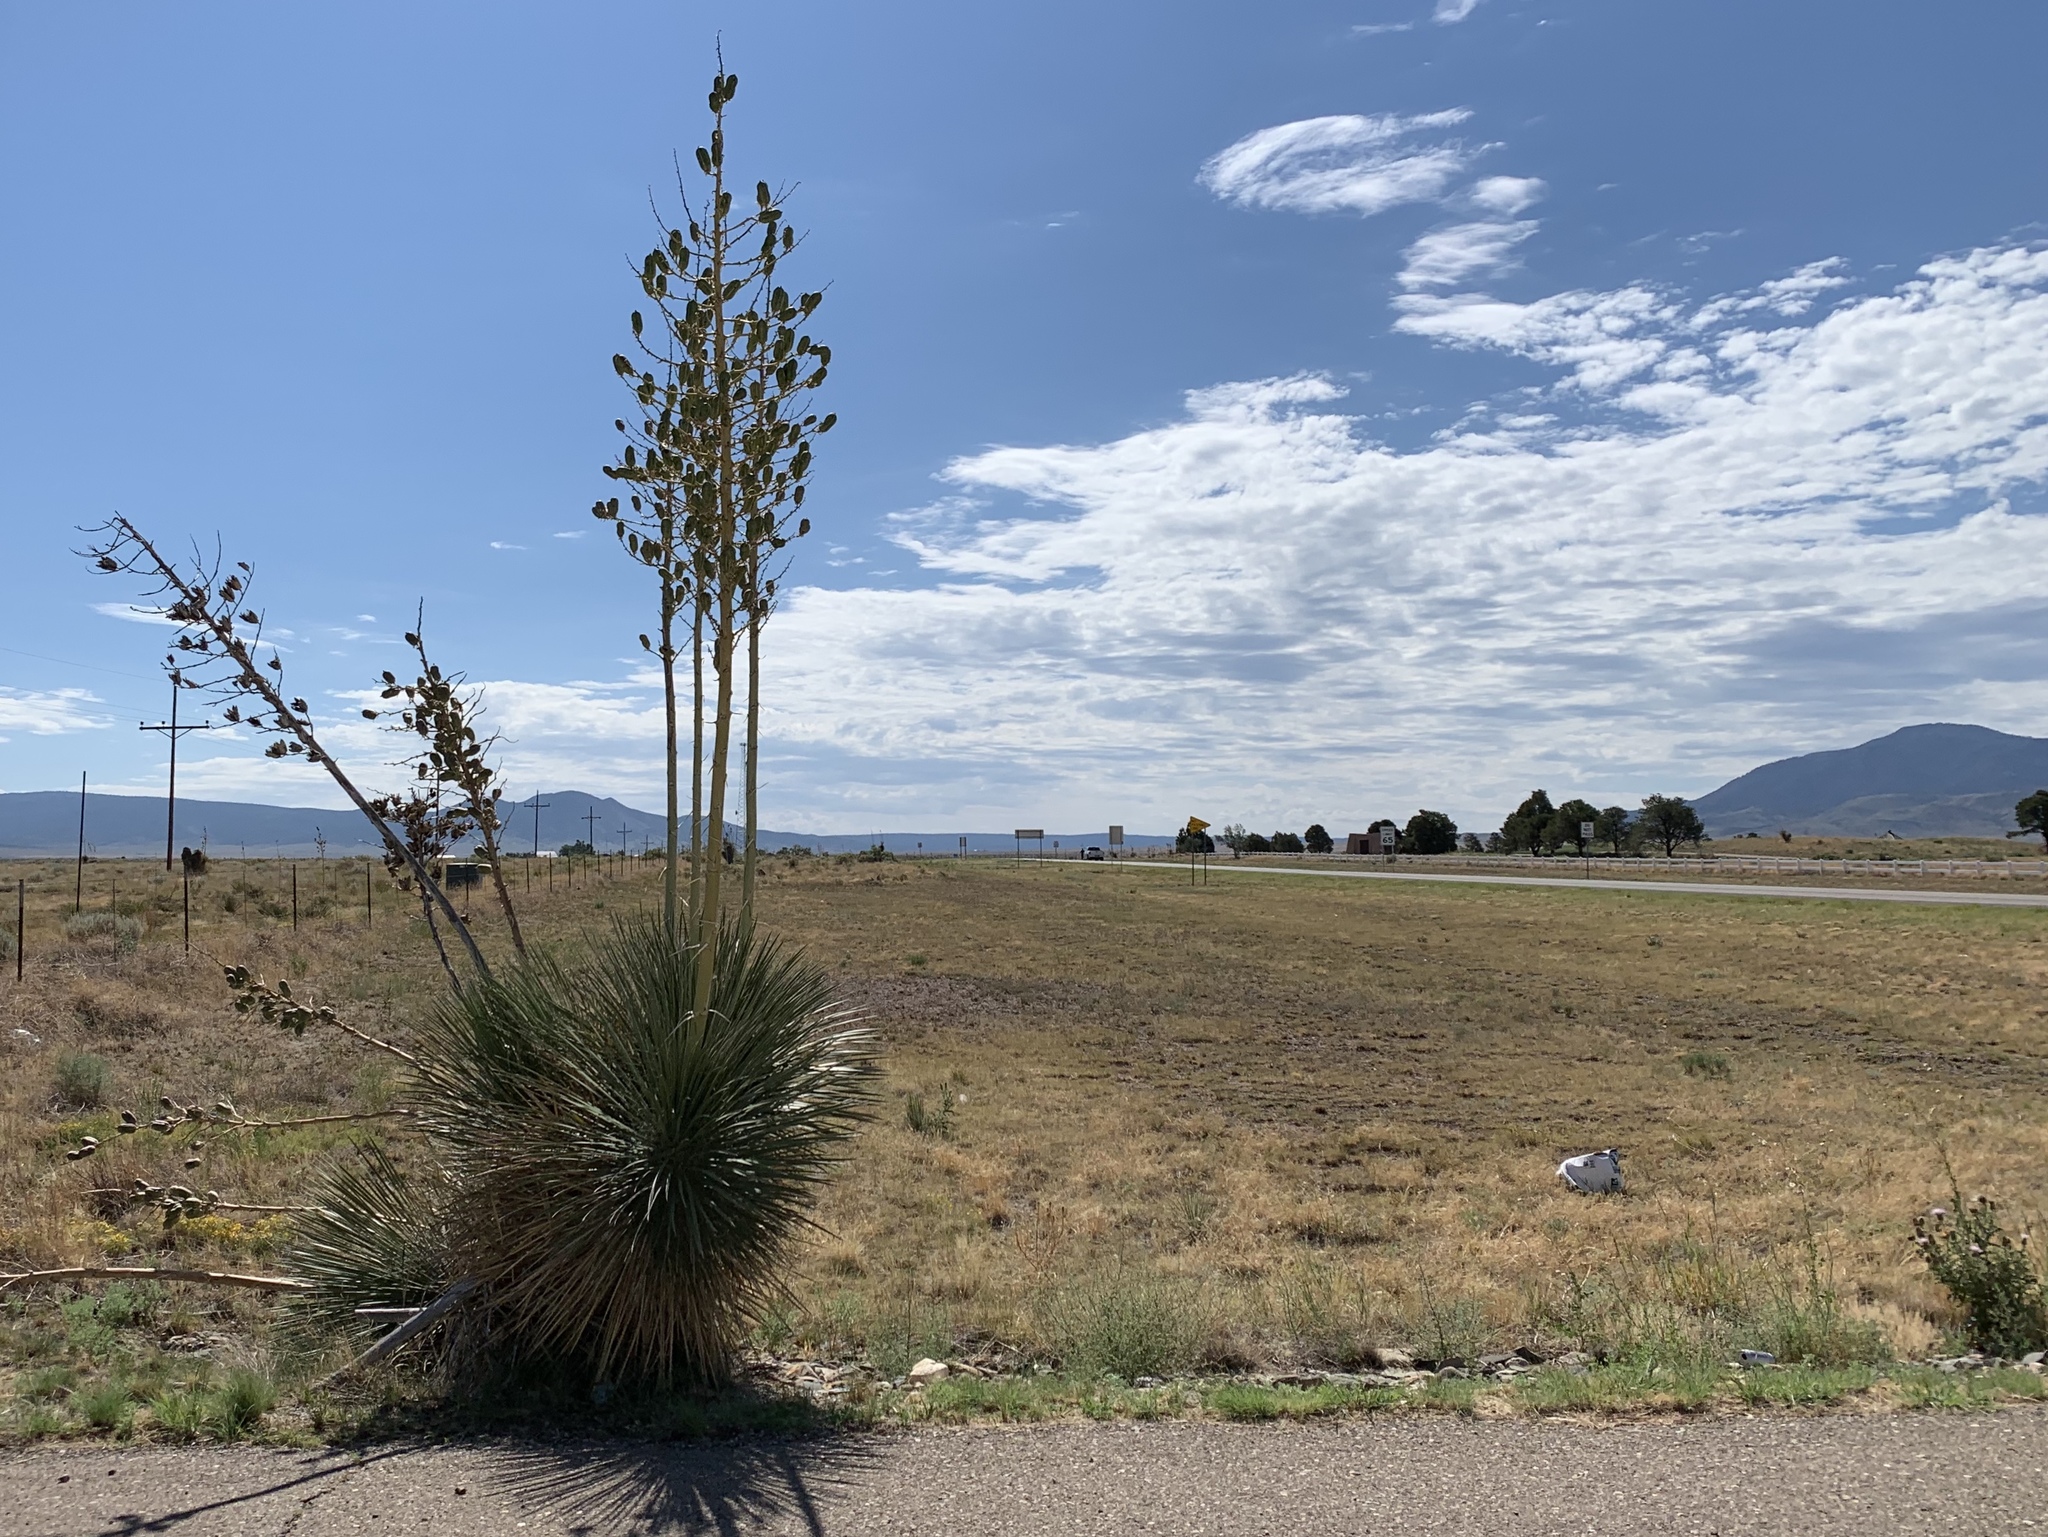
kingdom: Plantae
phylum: Tracheophyta
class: Liliopsida
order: Asparagales
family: Asparagaceae
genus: Yucca
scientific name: Yucca elata
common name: Palmella
